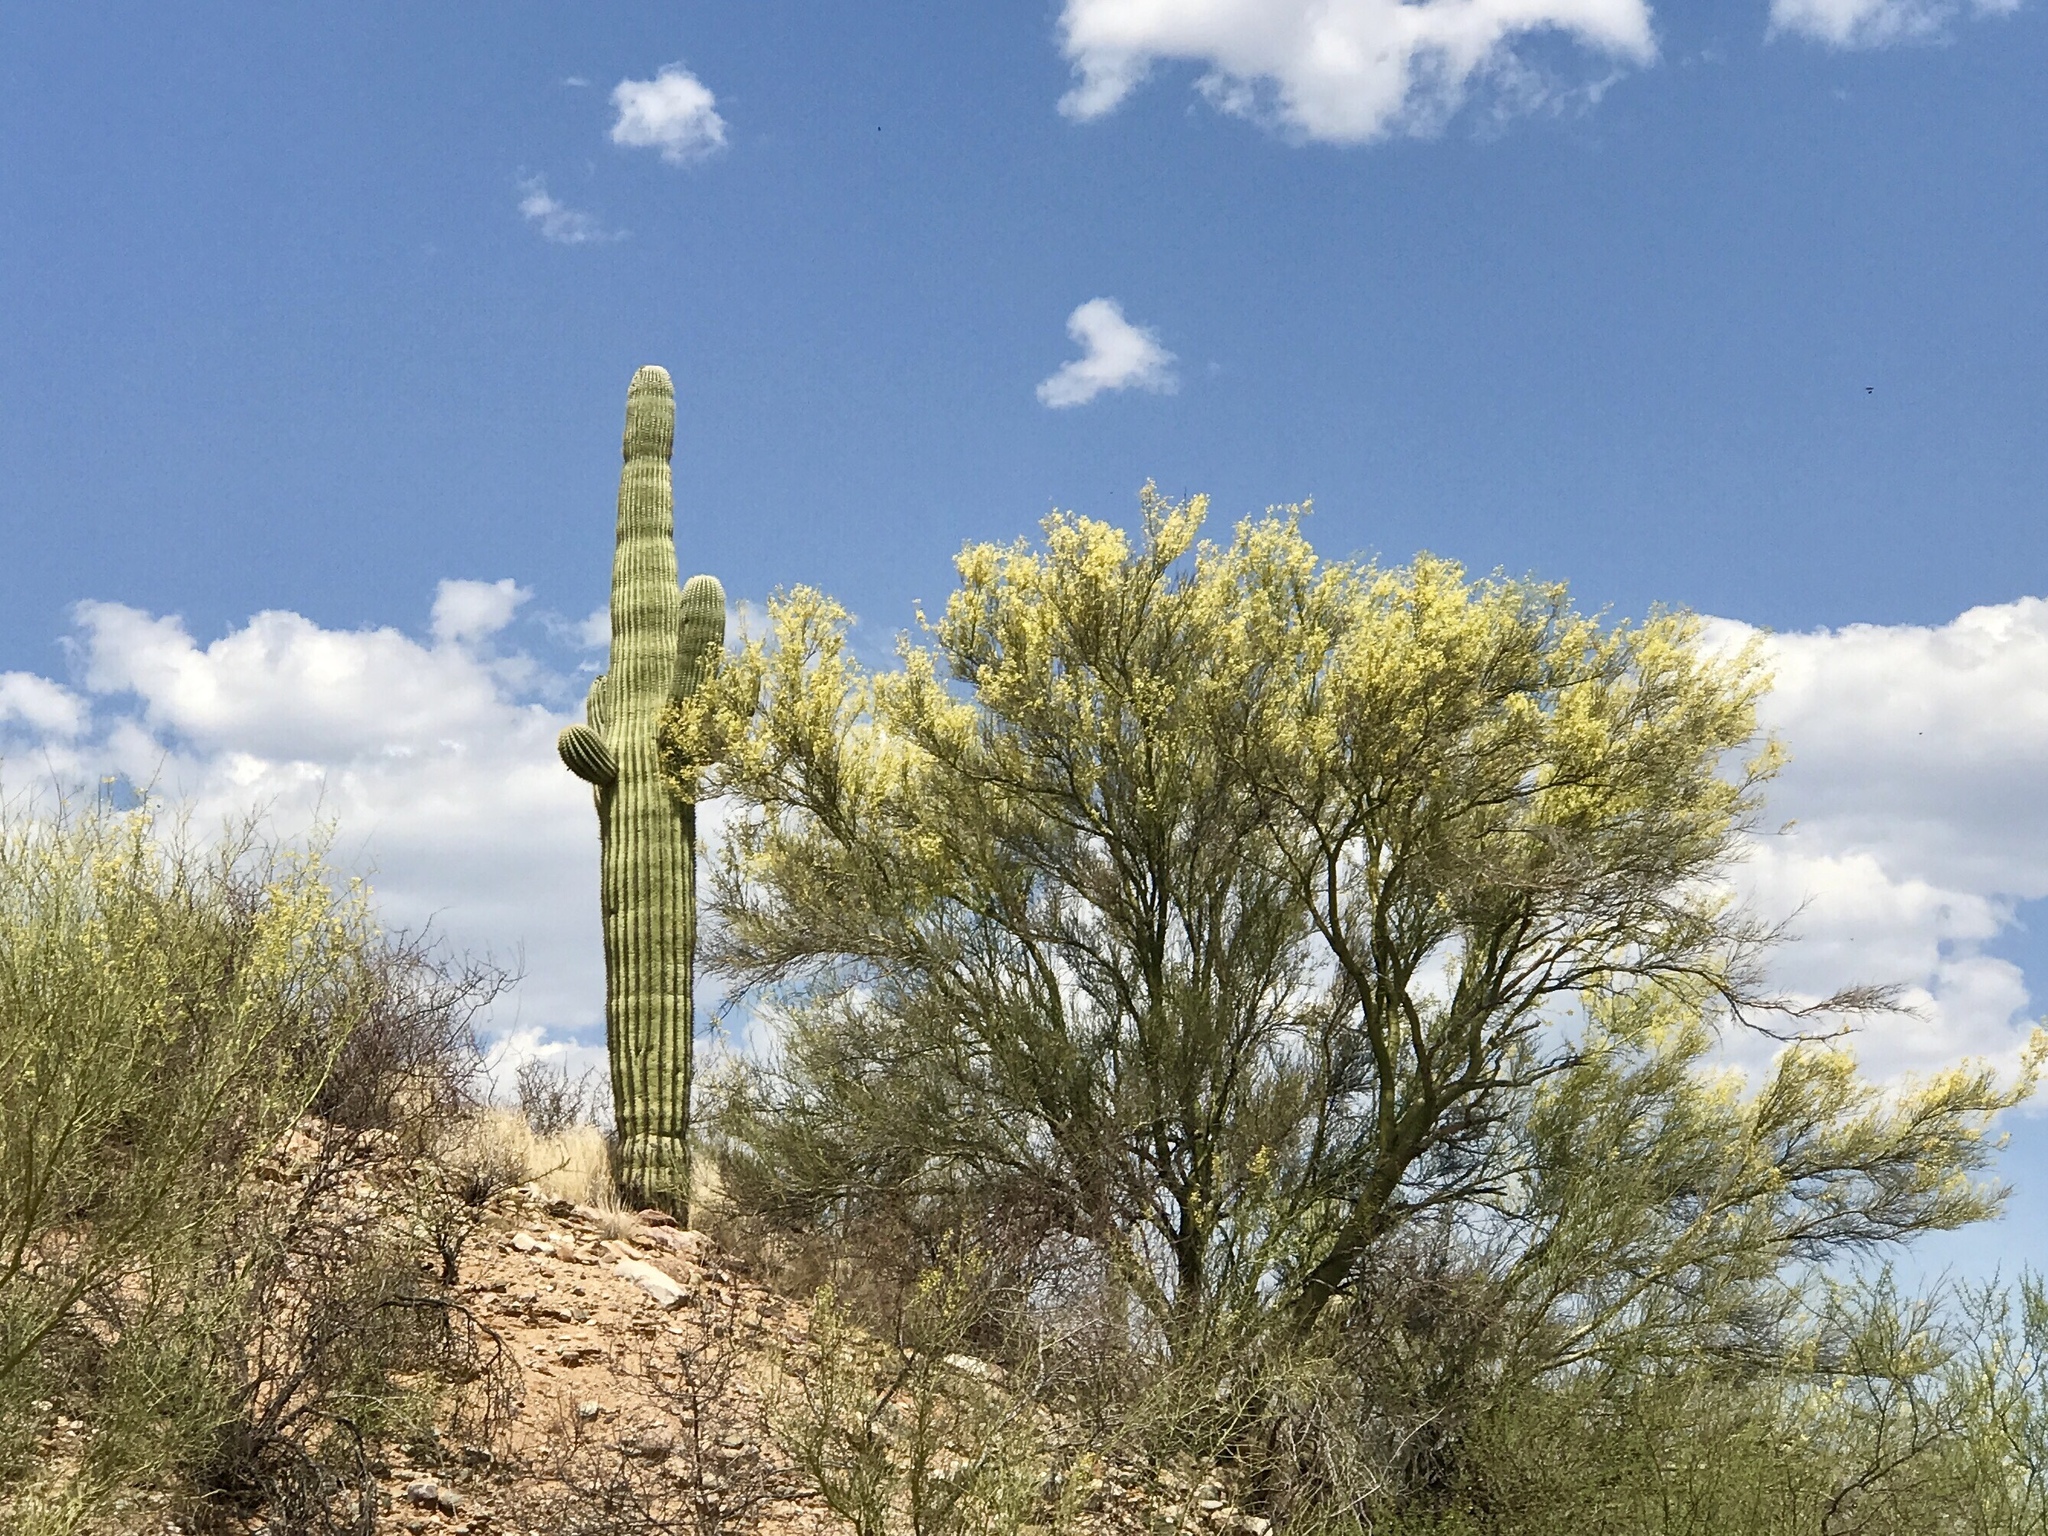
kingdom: Plantae
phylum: Tracheophyta
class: Magnoliopsida
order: Caryophyllales
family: Cactaceae
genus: Carnegiea
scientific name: Carnegiea gigantea
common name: Saguaro
